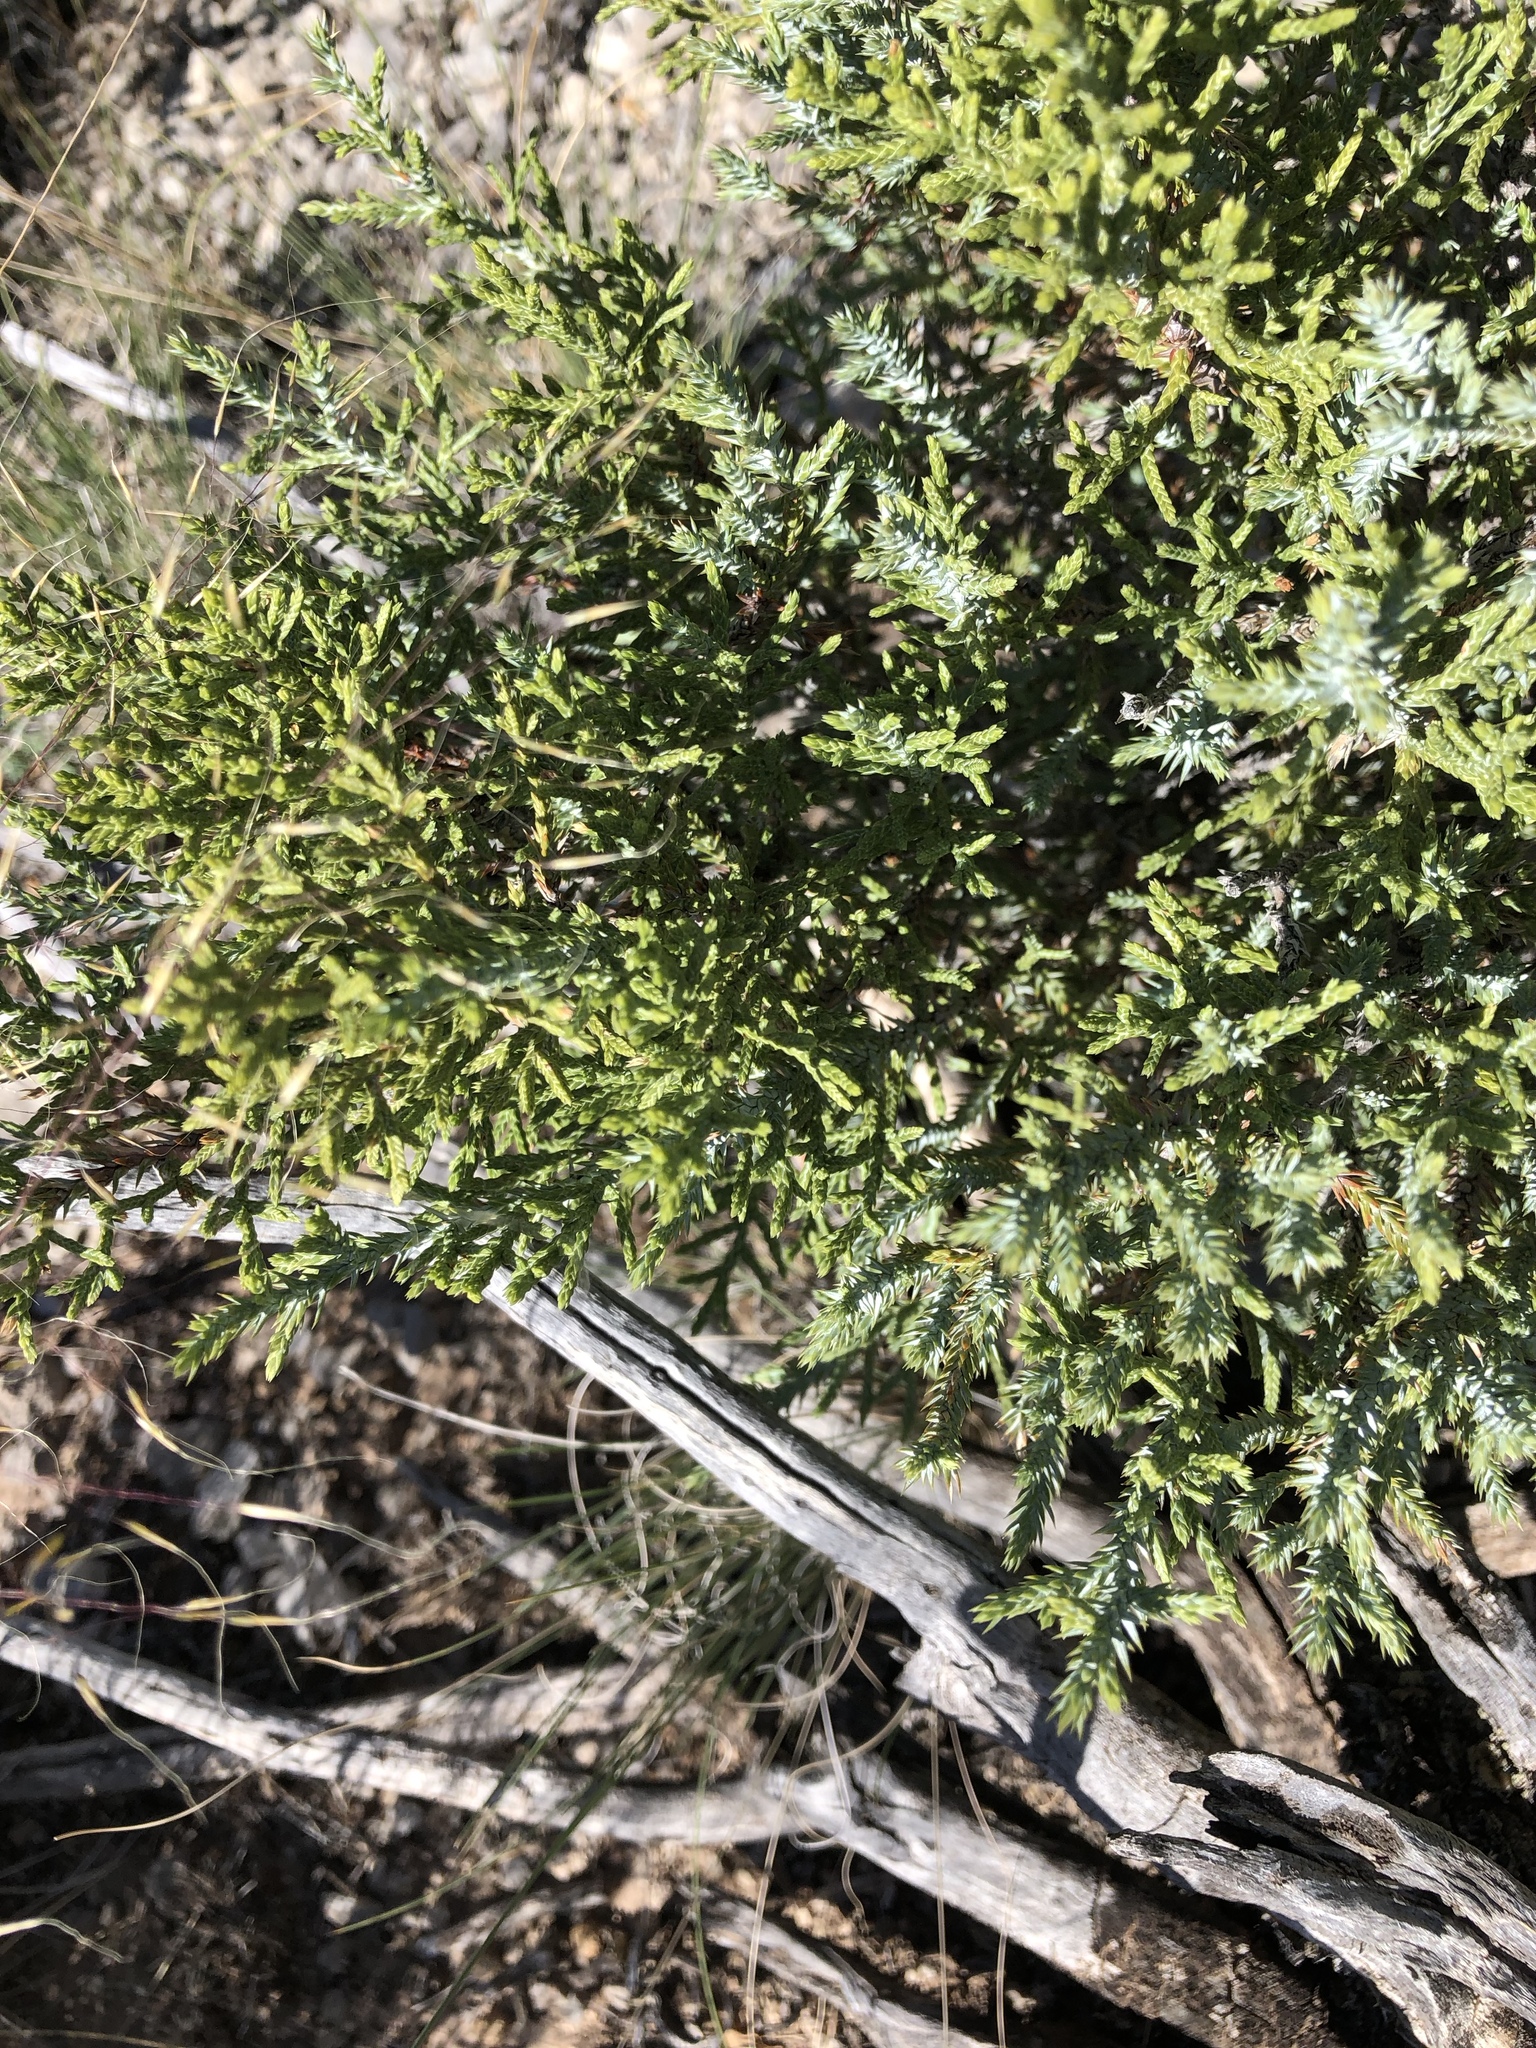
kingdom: Plantae
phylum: Tracheophyta
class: Pinopsida
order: Pinales
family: Cupressaceae
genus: Juniperus
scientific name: Juniperus monosperma
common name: One-seed juniper
